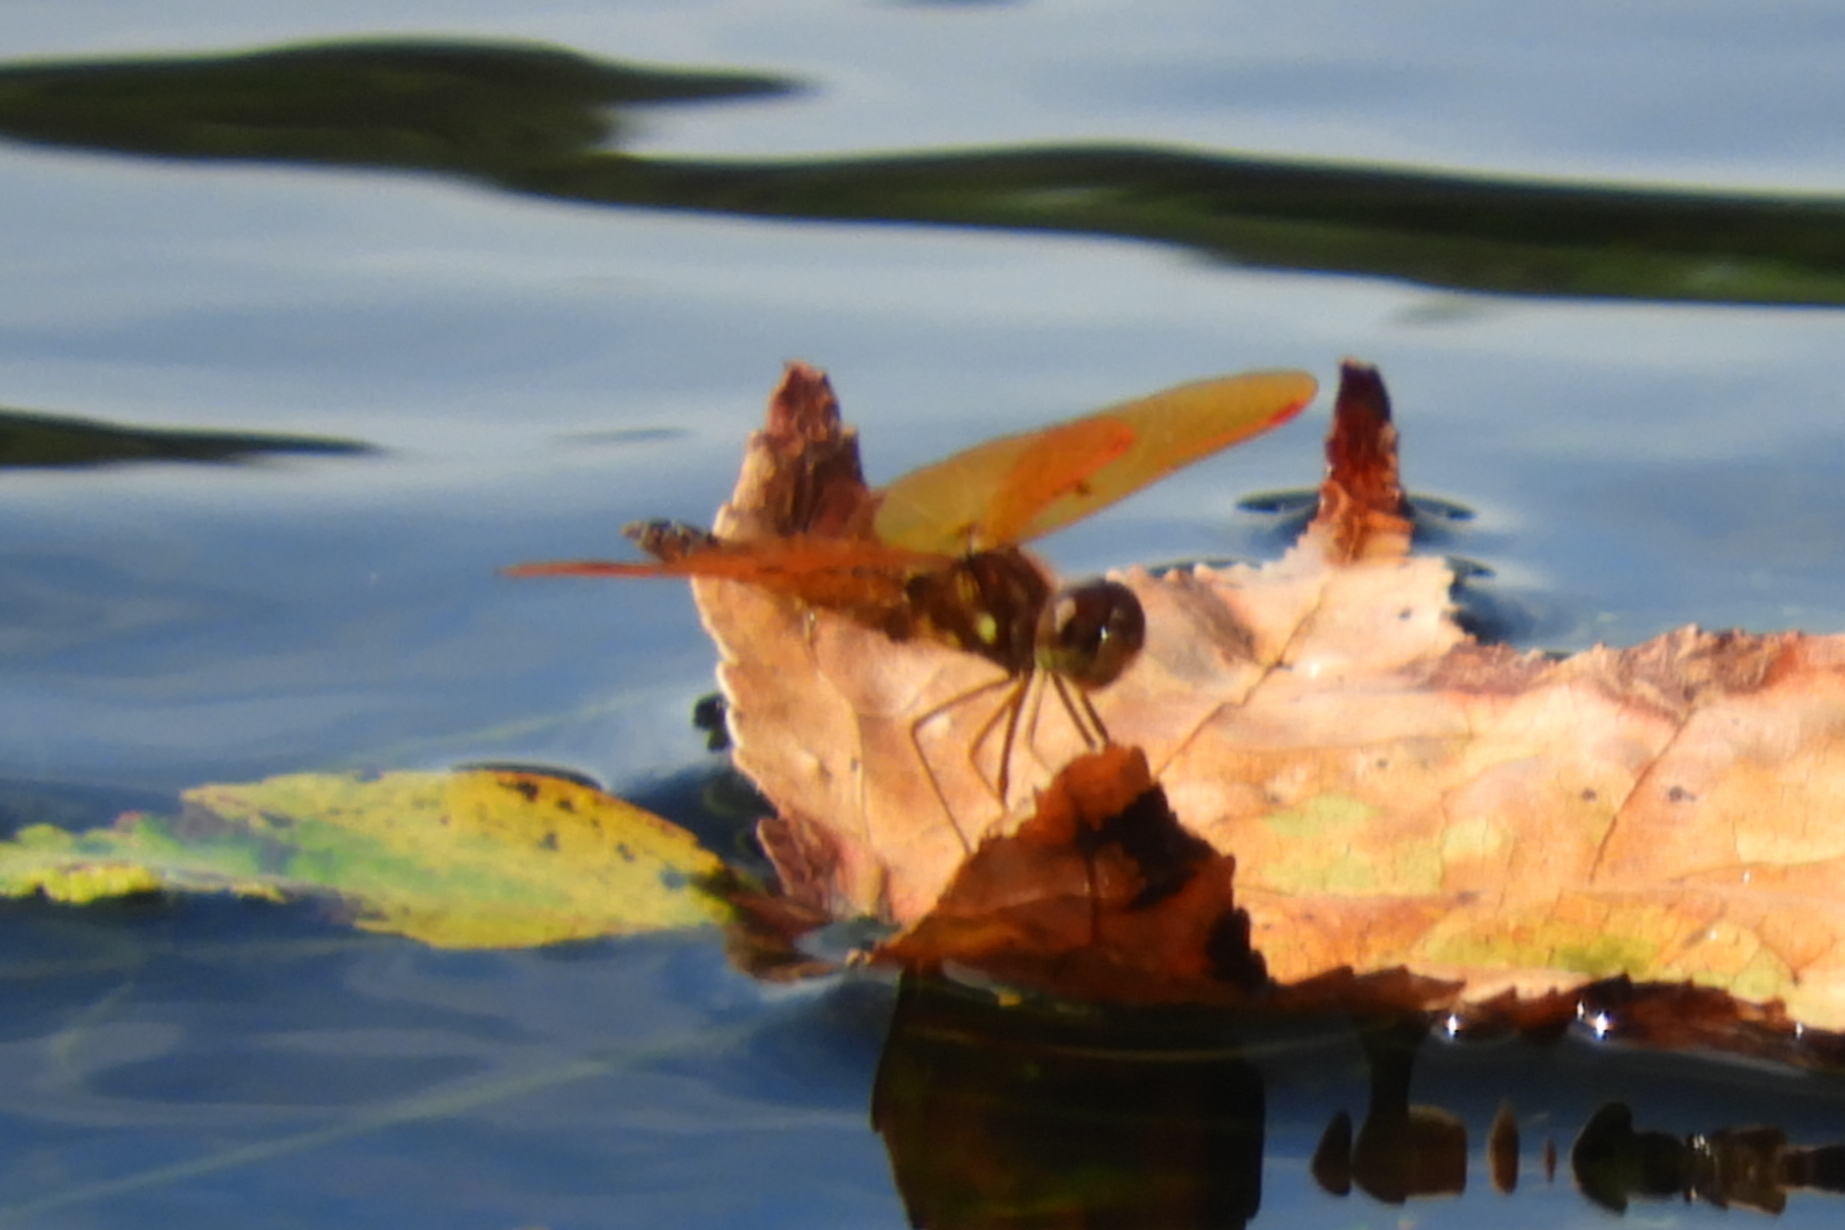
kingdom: Animalia
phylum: Arthropoda
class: Insecta
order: Odonata
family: Libellulidae
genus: Perithemis
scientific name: Perithemis tenera
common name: Eastern amberwing
